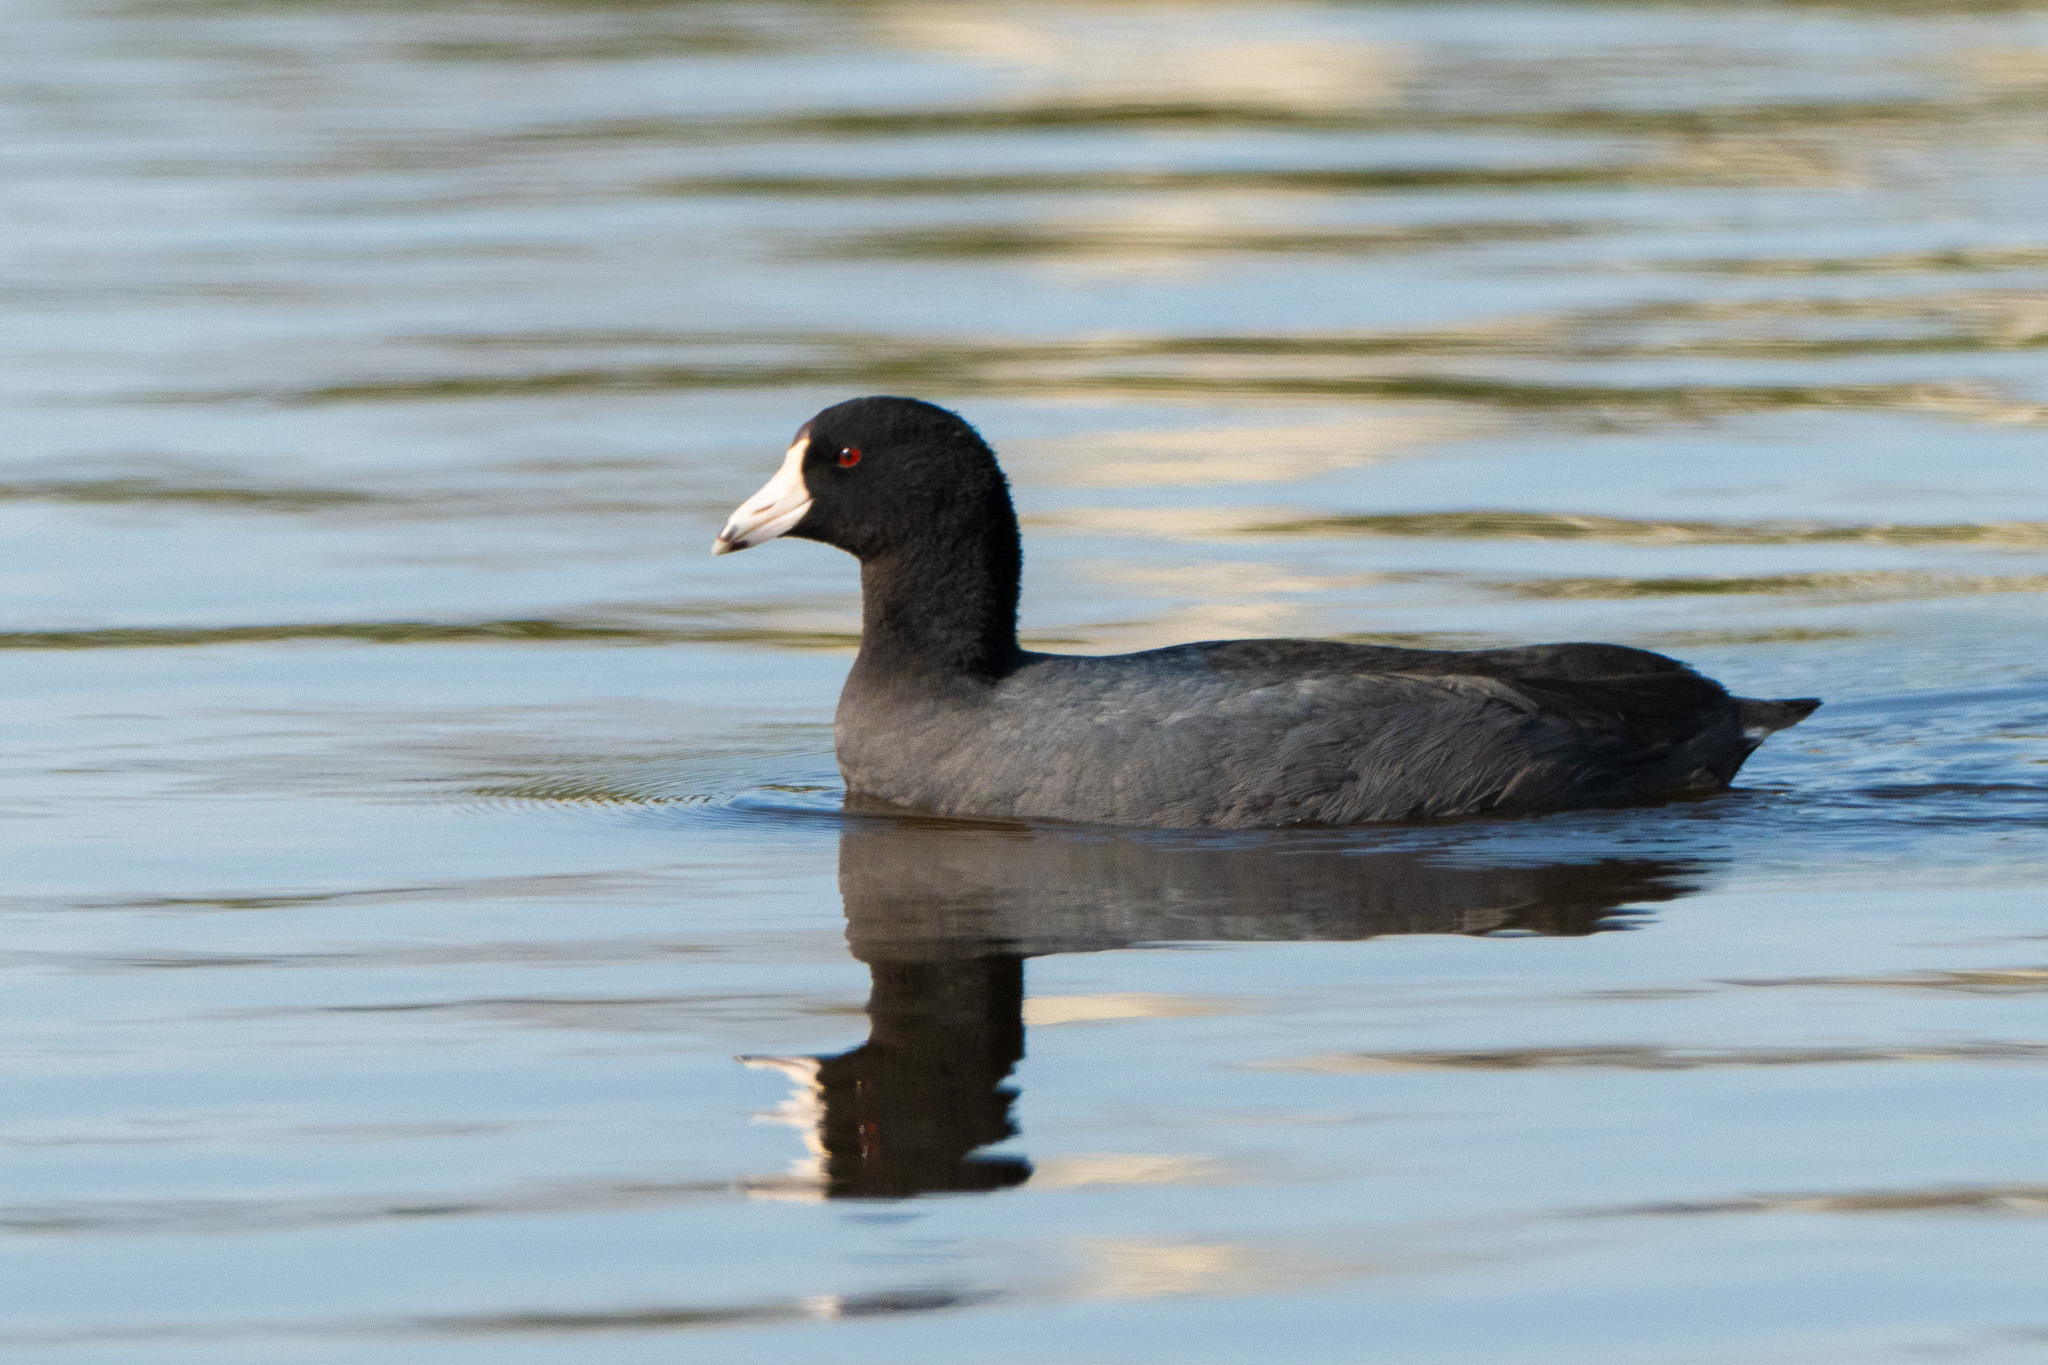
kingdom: Animalia
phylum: Chordata
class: Aves
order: Gruiformes
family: Rallidae
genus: Fulica
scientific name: Fulica americana
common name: American coot
